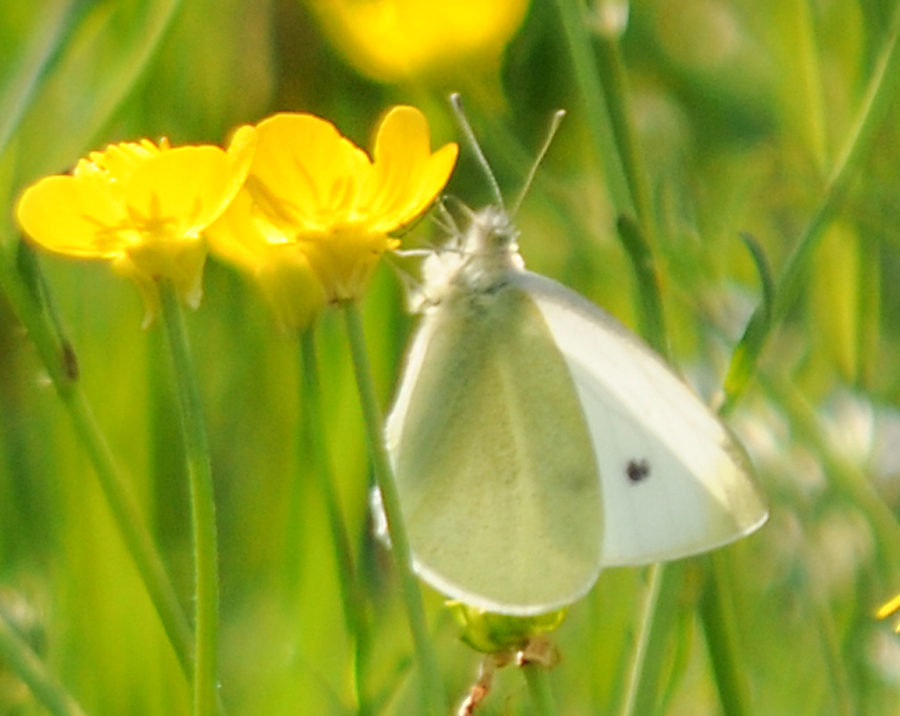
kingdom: Animalia
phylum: Arthropoda
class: Insecta
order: Lepidoptera
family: Pieridae
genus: Pieris
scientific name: Pieris rapae
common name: Small white
